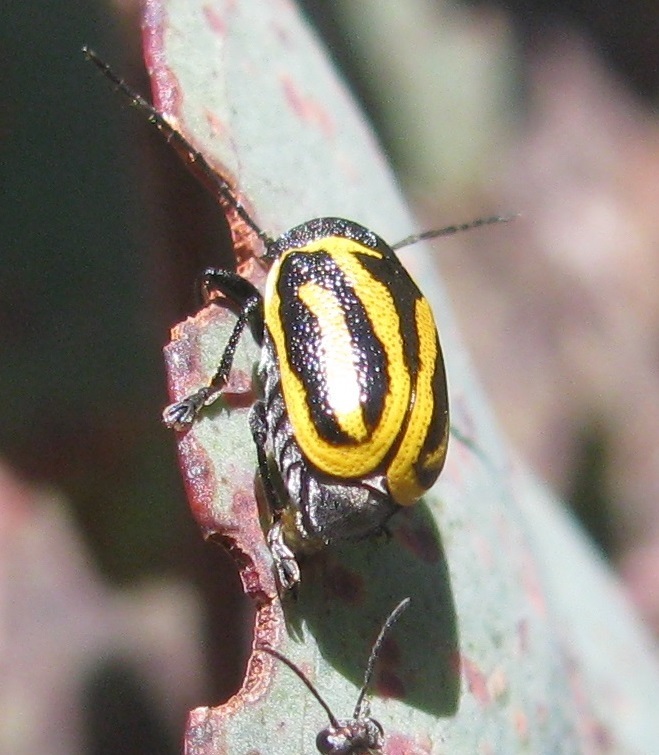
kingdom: Animalia
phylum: Arthropoda
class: Insecta
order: Coleoptera
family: Chrysomelidae
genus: Cadmus
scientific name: Cadmus
